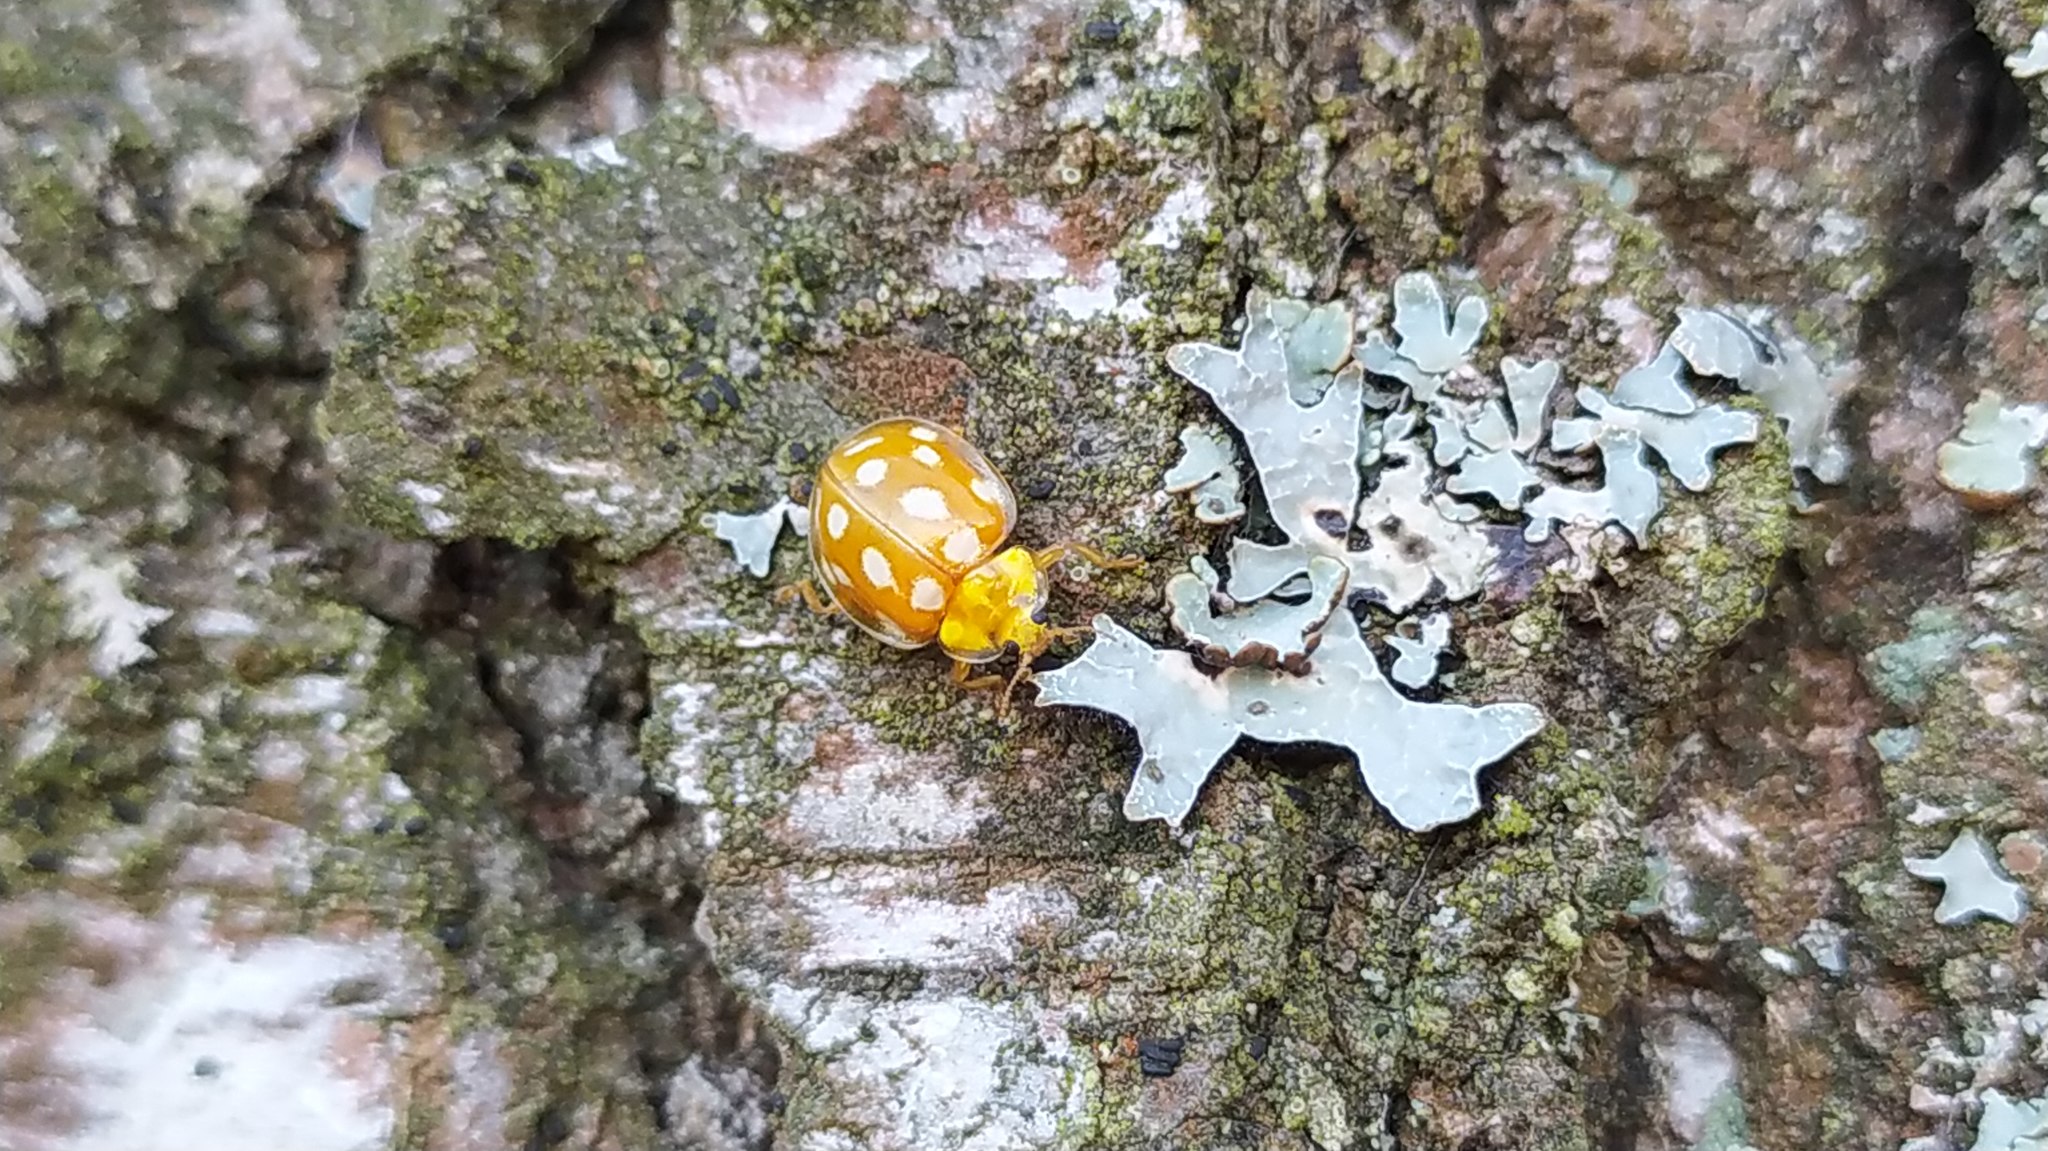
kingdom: Animalia
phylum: Arthropoda
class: Insecta
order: Coleoptera
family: Coccinellidae
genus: Halyzia
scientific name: Halyzia sedecimguttata
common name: Orange ladybird
